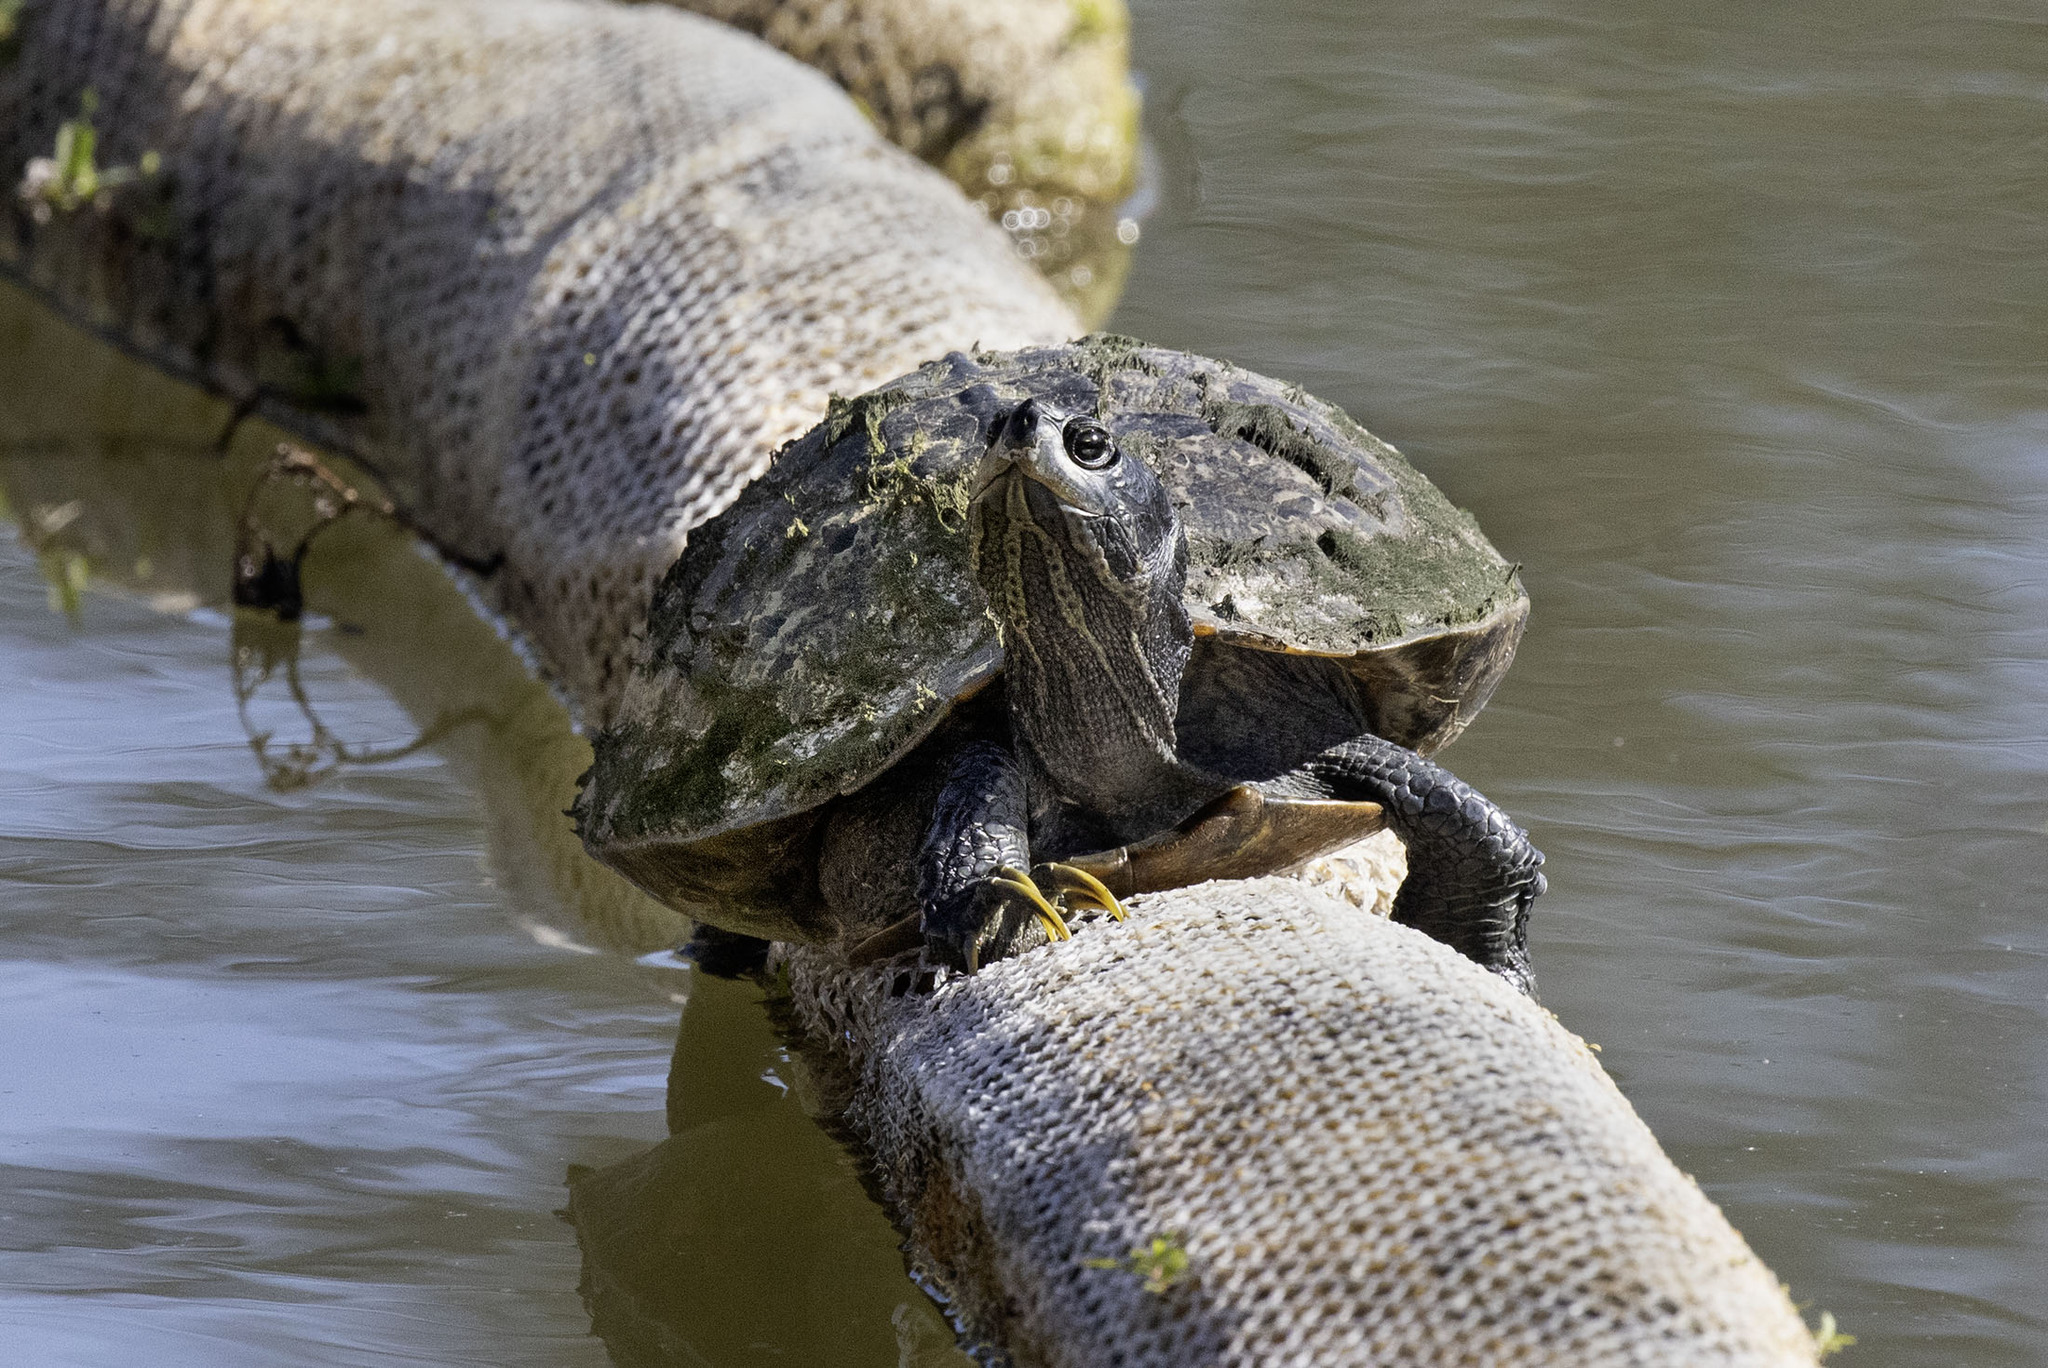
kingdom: Animalia
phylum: Chordata
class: Testudines
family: Emydidae
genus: Trachemys
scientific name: Trachemys scripta
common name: Slider
